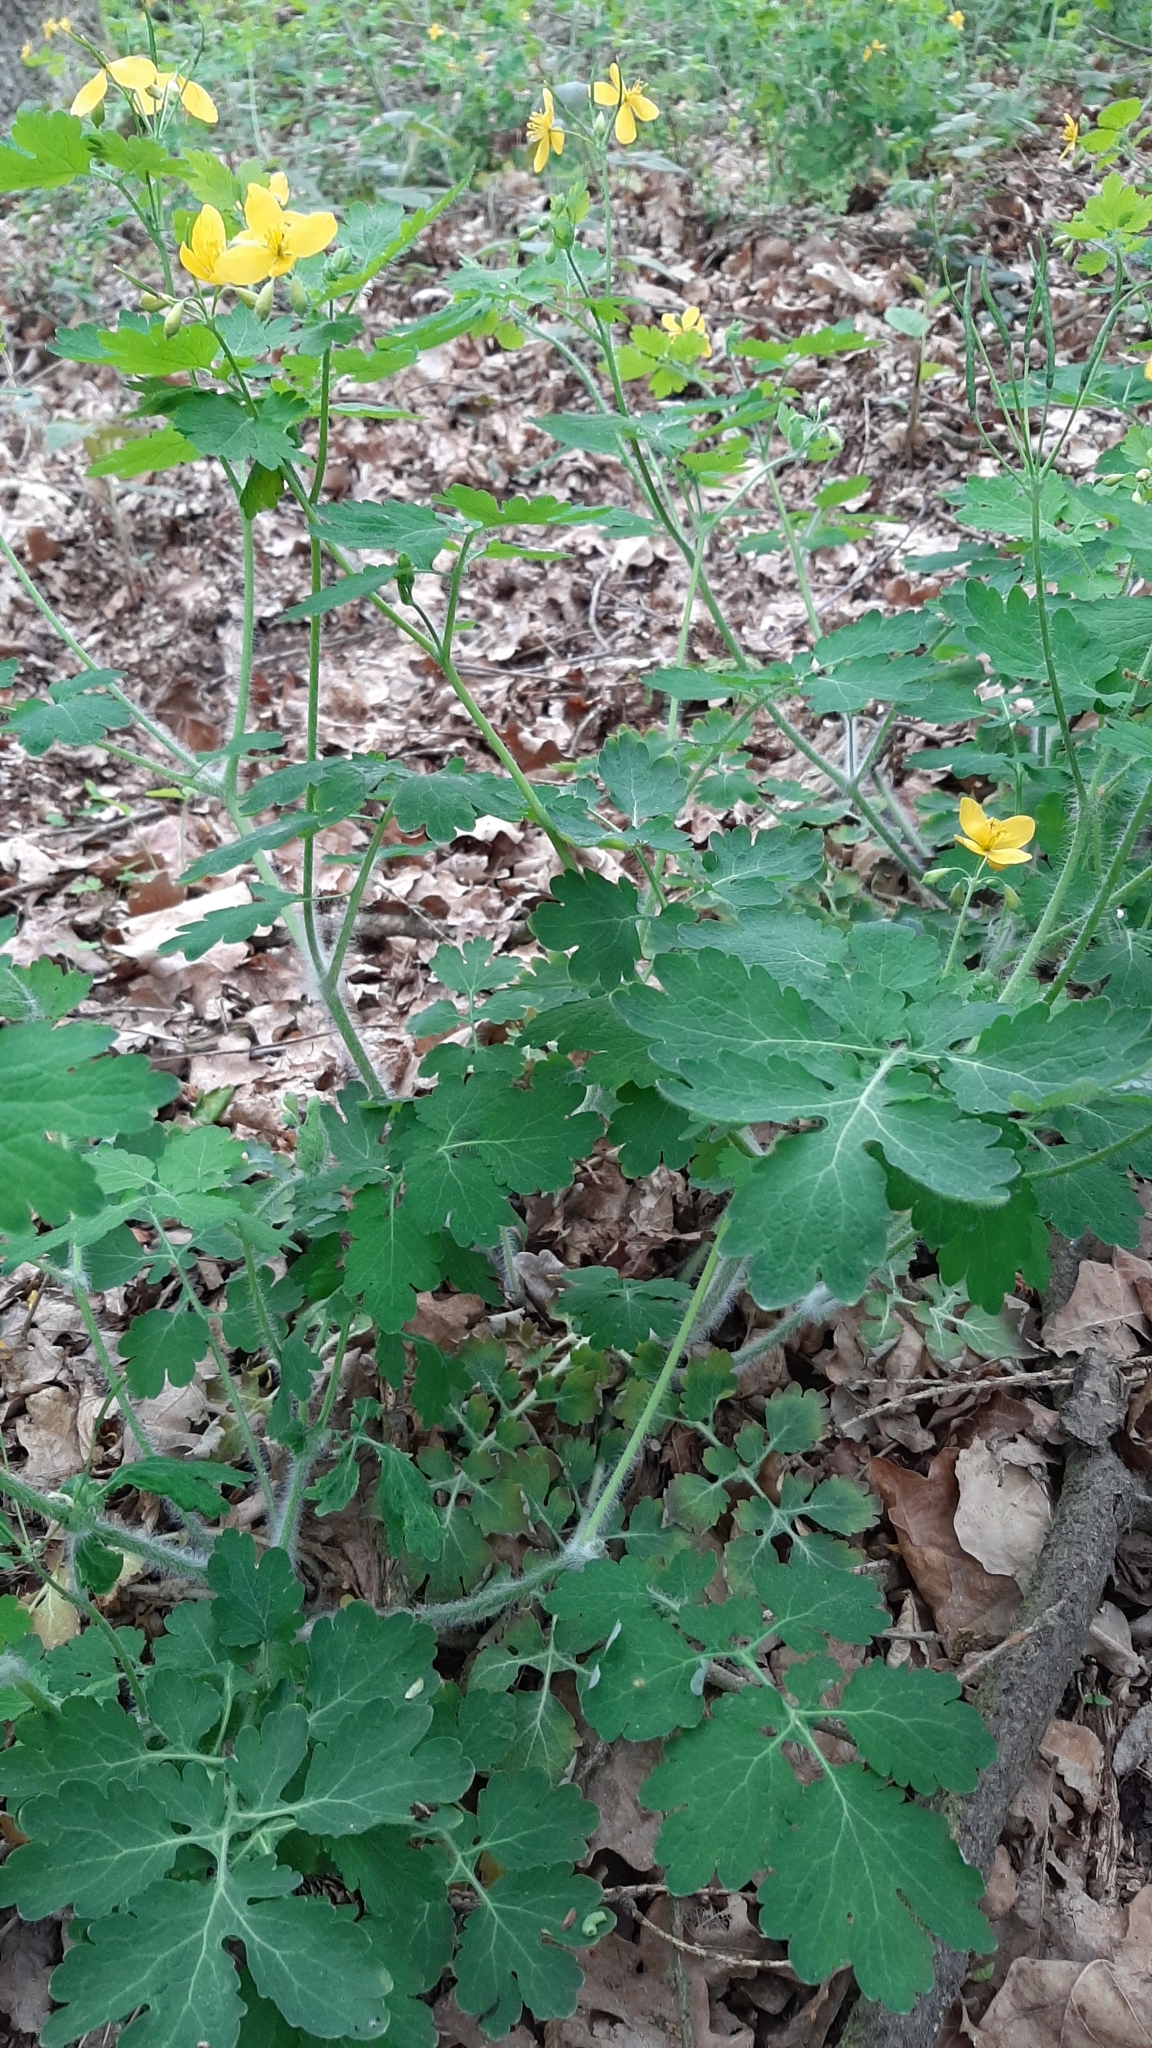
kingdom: Plantae
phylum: Tracheophyta
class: Magnoliopsida
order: Ranunculales
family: Papaveraceae
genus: Chelidonium
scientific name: Chelidonium majus
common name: Greater celandine
